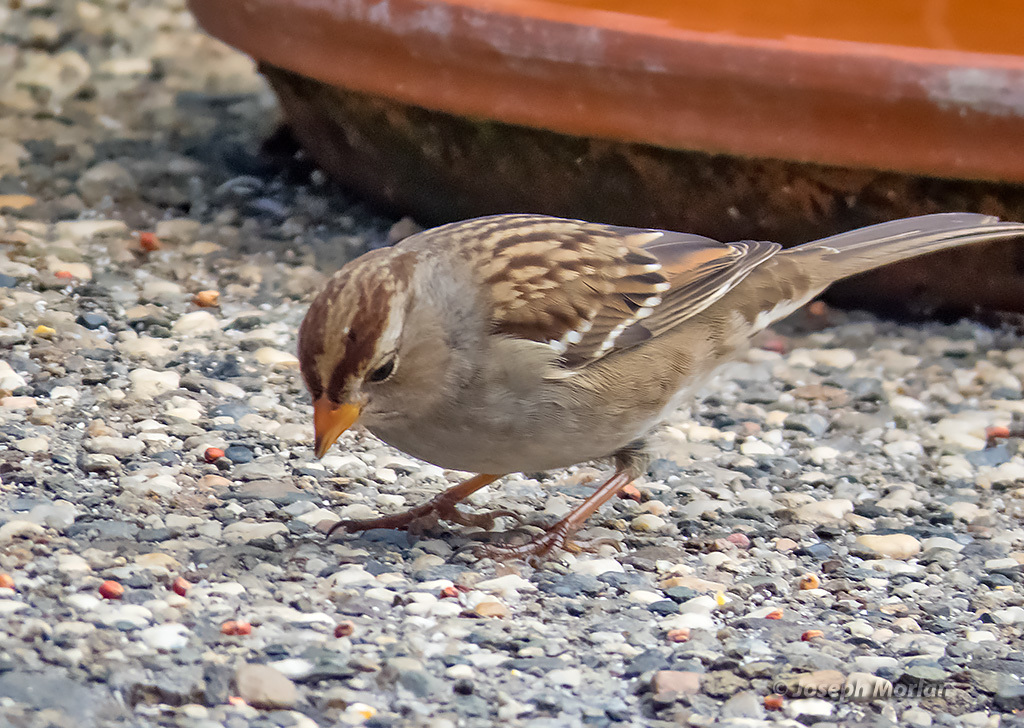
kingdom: Animalia
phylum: Chordata
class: Aves
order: Passeriformes
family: Passerellidae
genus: Zonotrichia
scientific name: Zonotrichia leucophrys
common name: White-crowned sparrow
